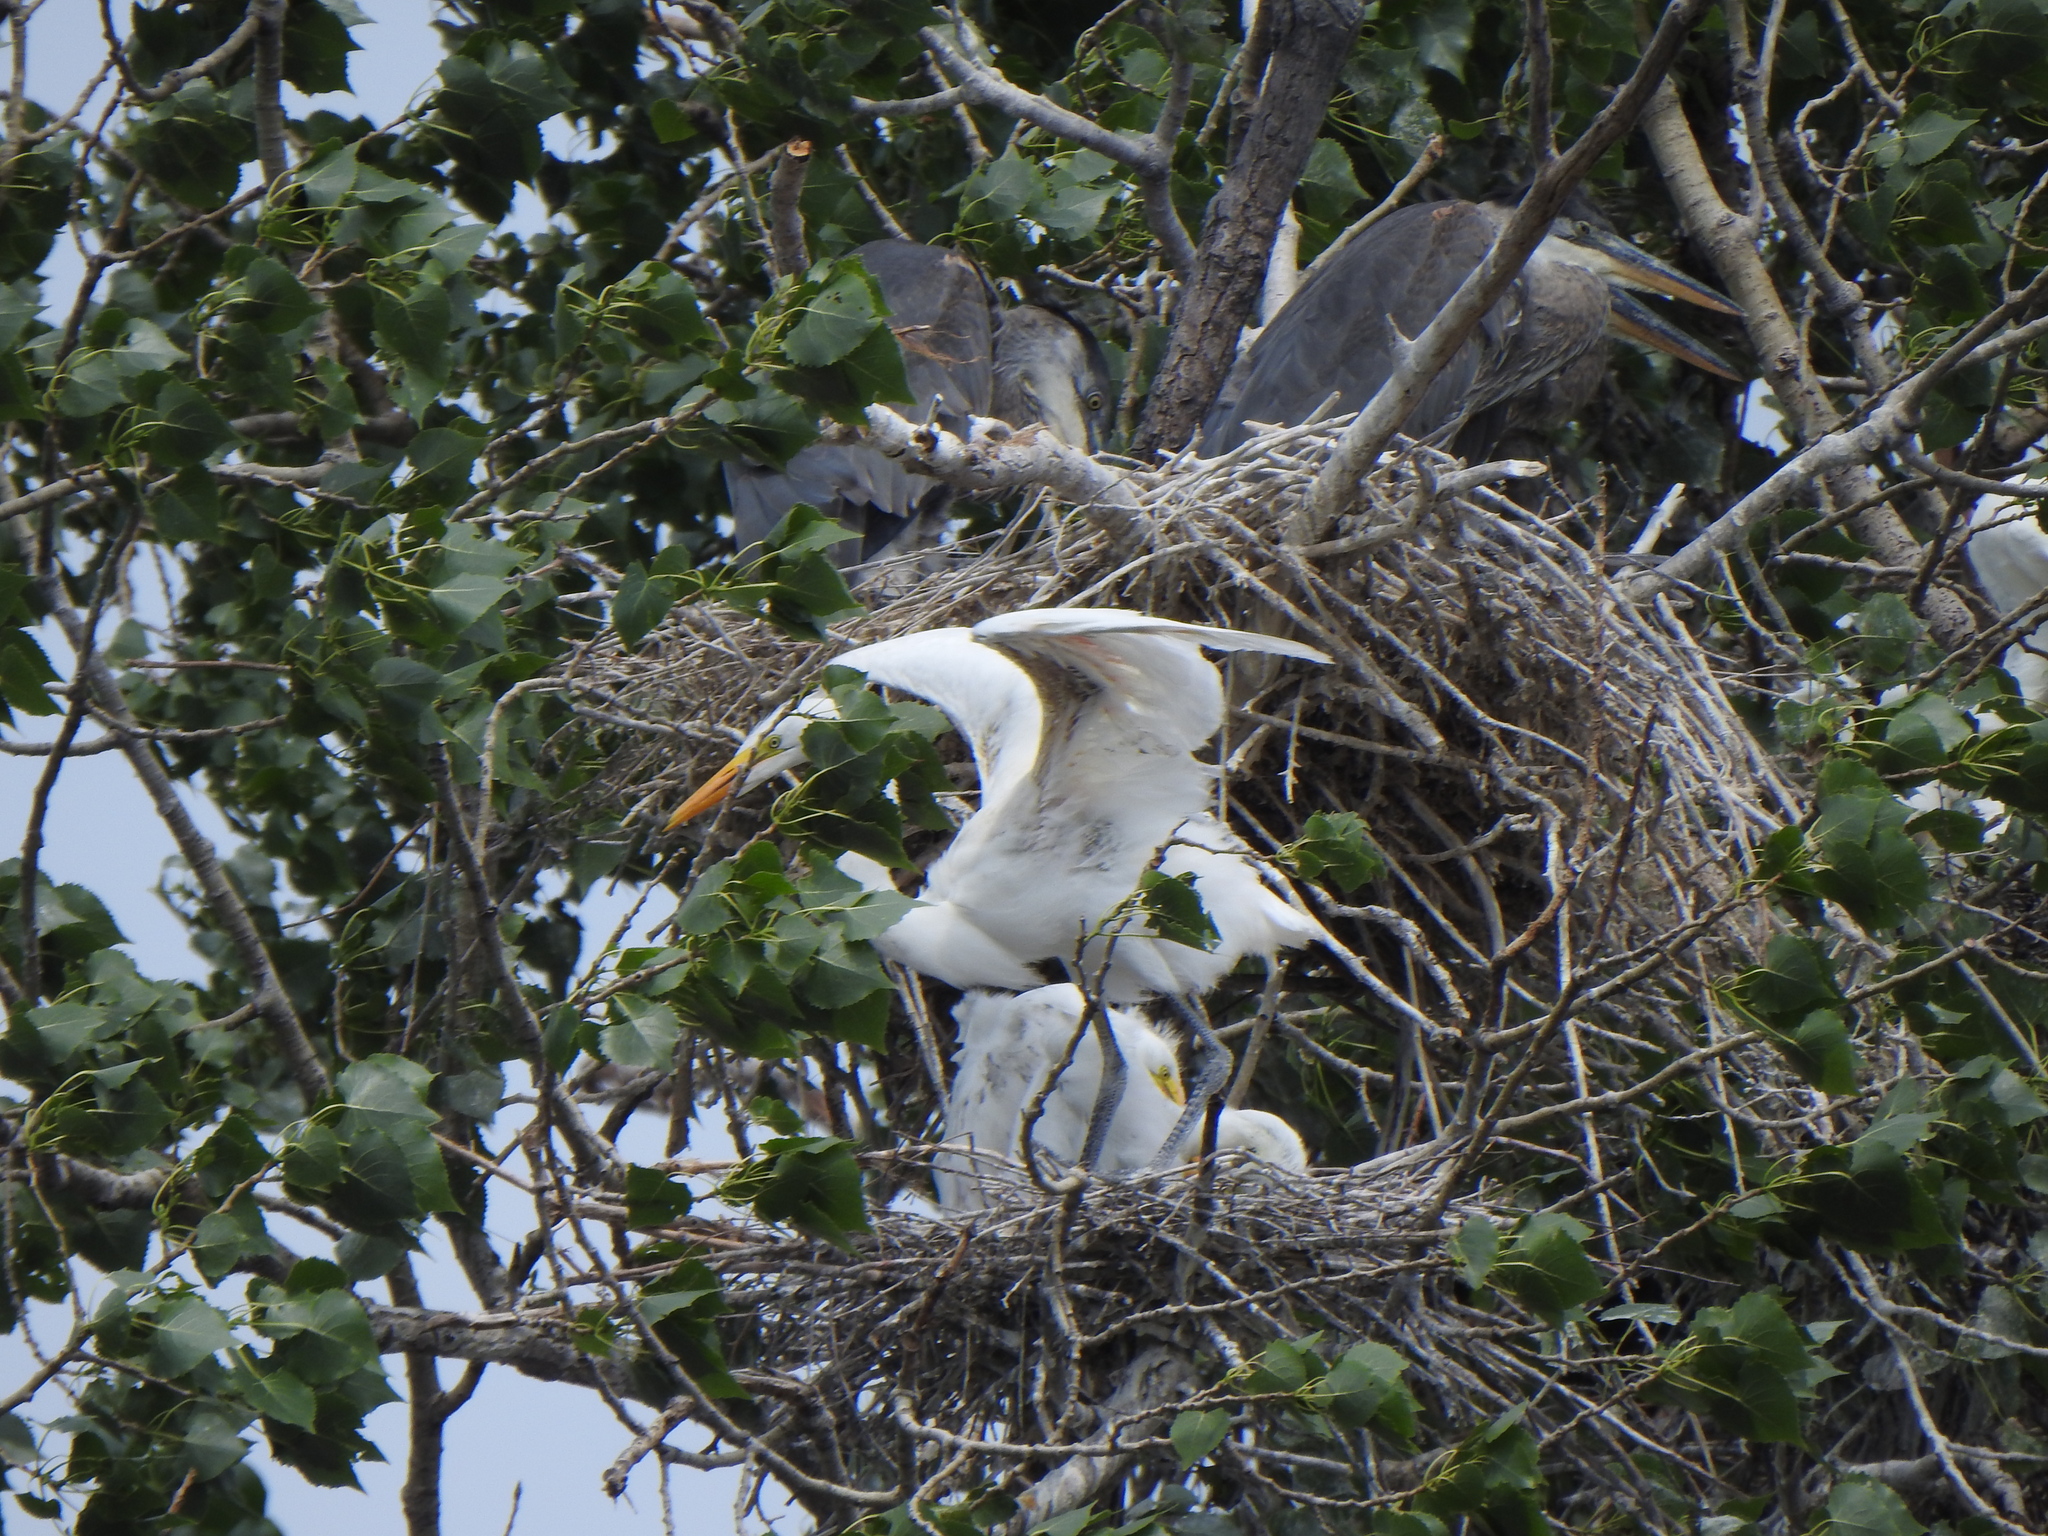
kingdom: Animalia
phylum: Chordata
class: Aves
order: Pelecaniformes
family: Ardeidae
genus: Ardea
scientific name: Ardea alba
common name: Great egret
